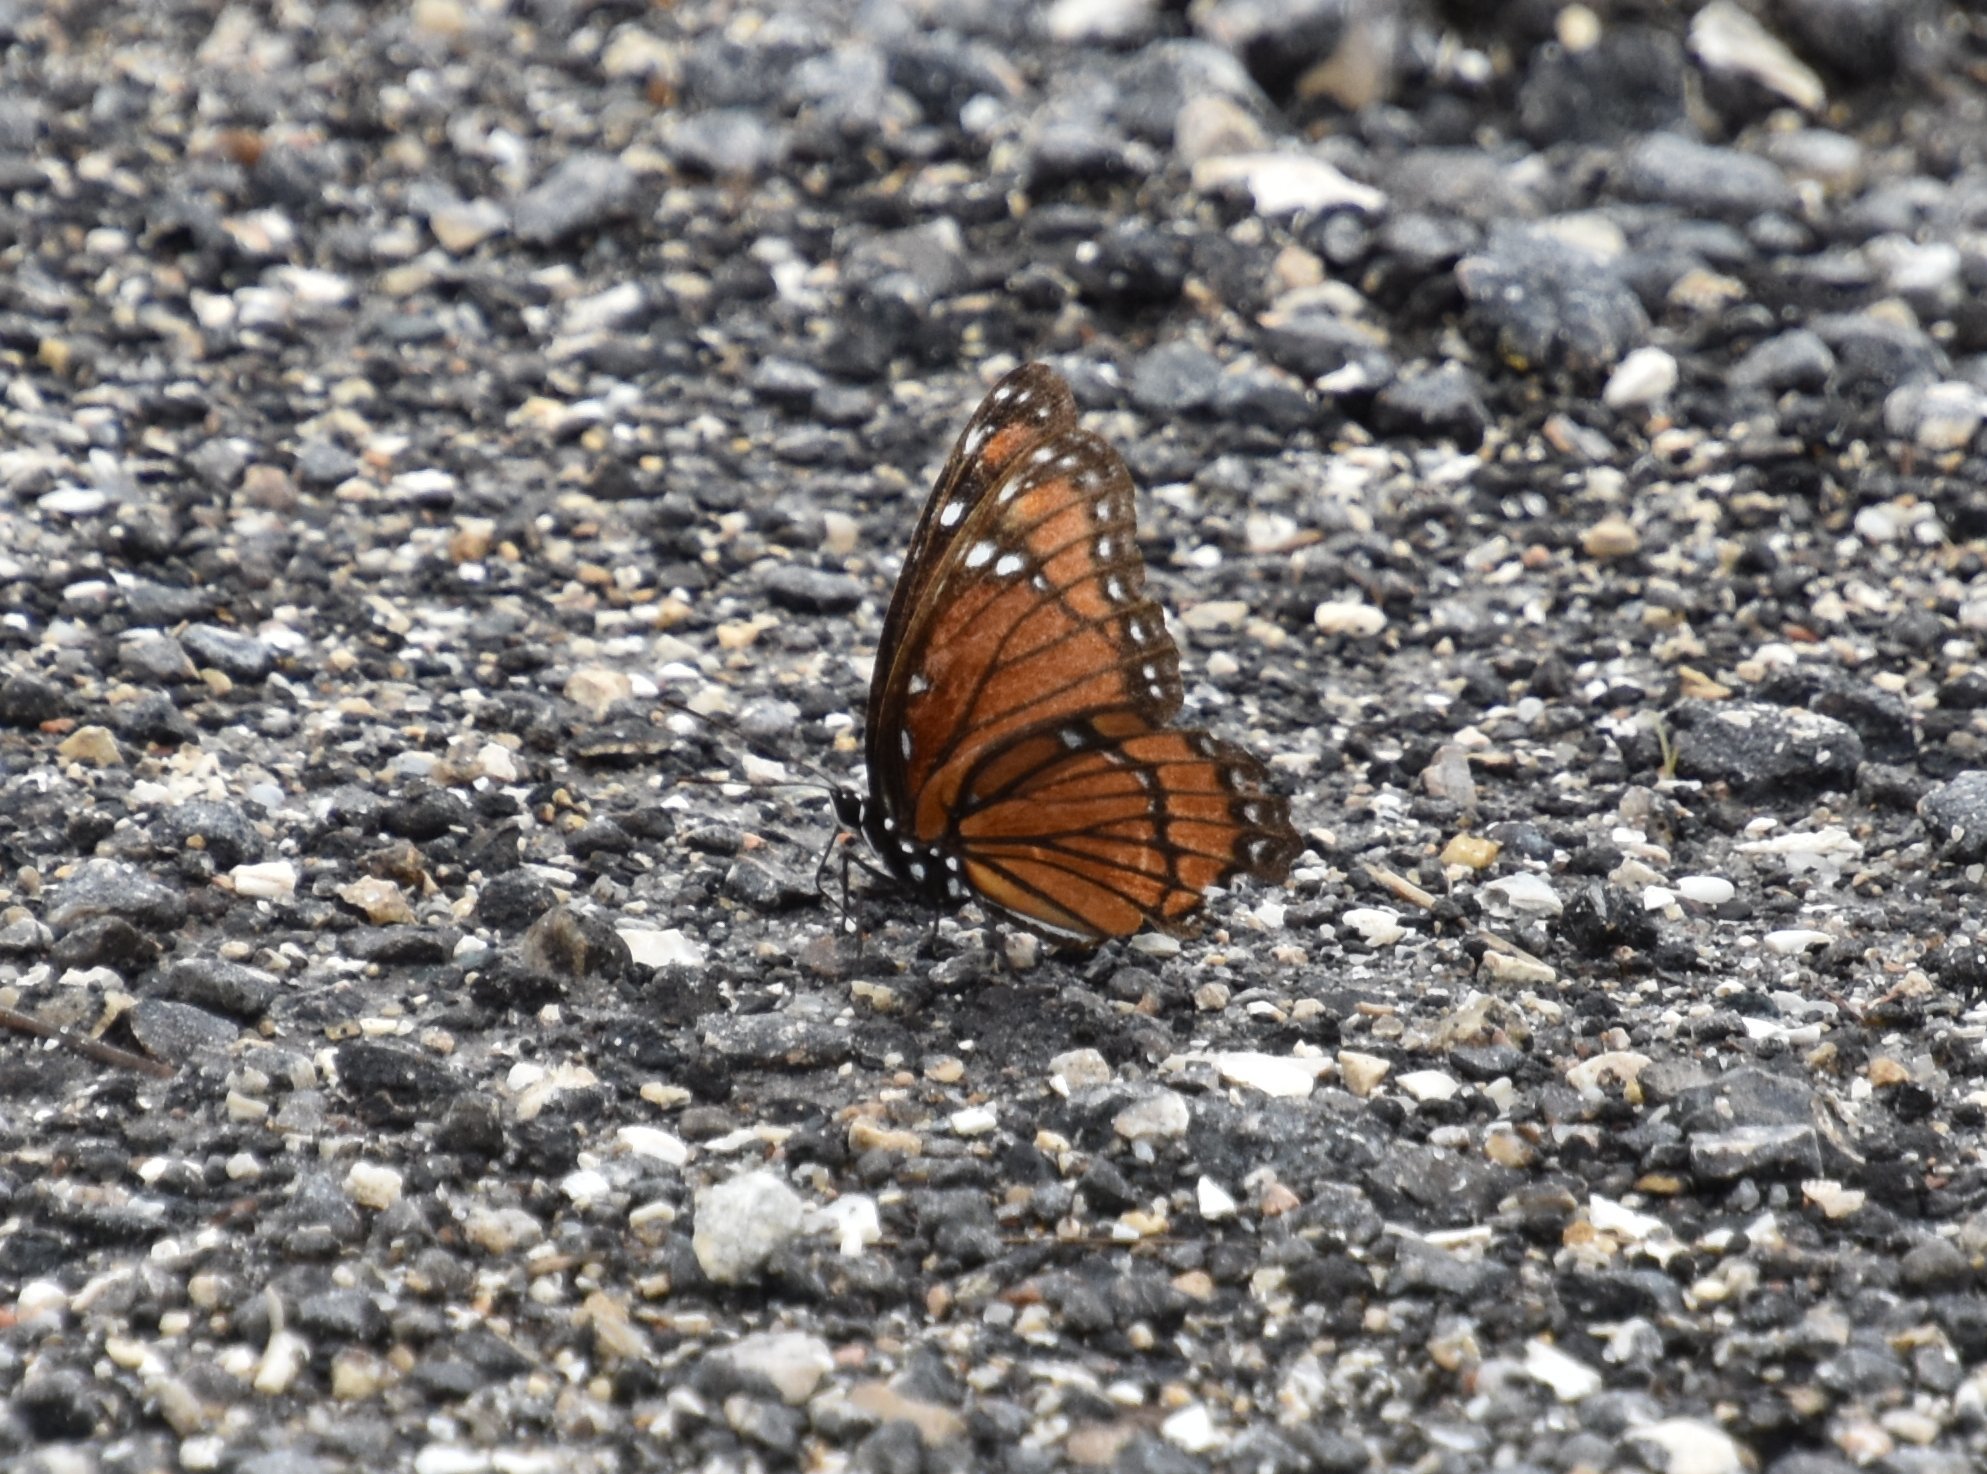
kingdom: Animalia
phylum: Arthropoda
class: Insecta
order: Lepidoptera
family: Nymphalidae
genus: Limenitis
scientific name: Limenitis archippus
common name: Viceroy
